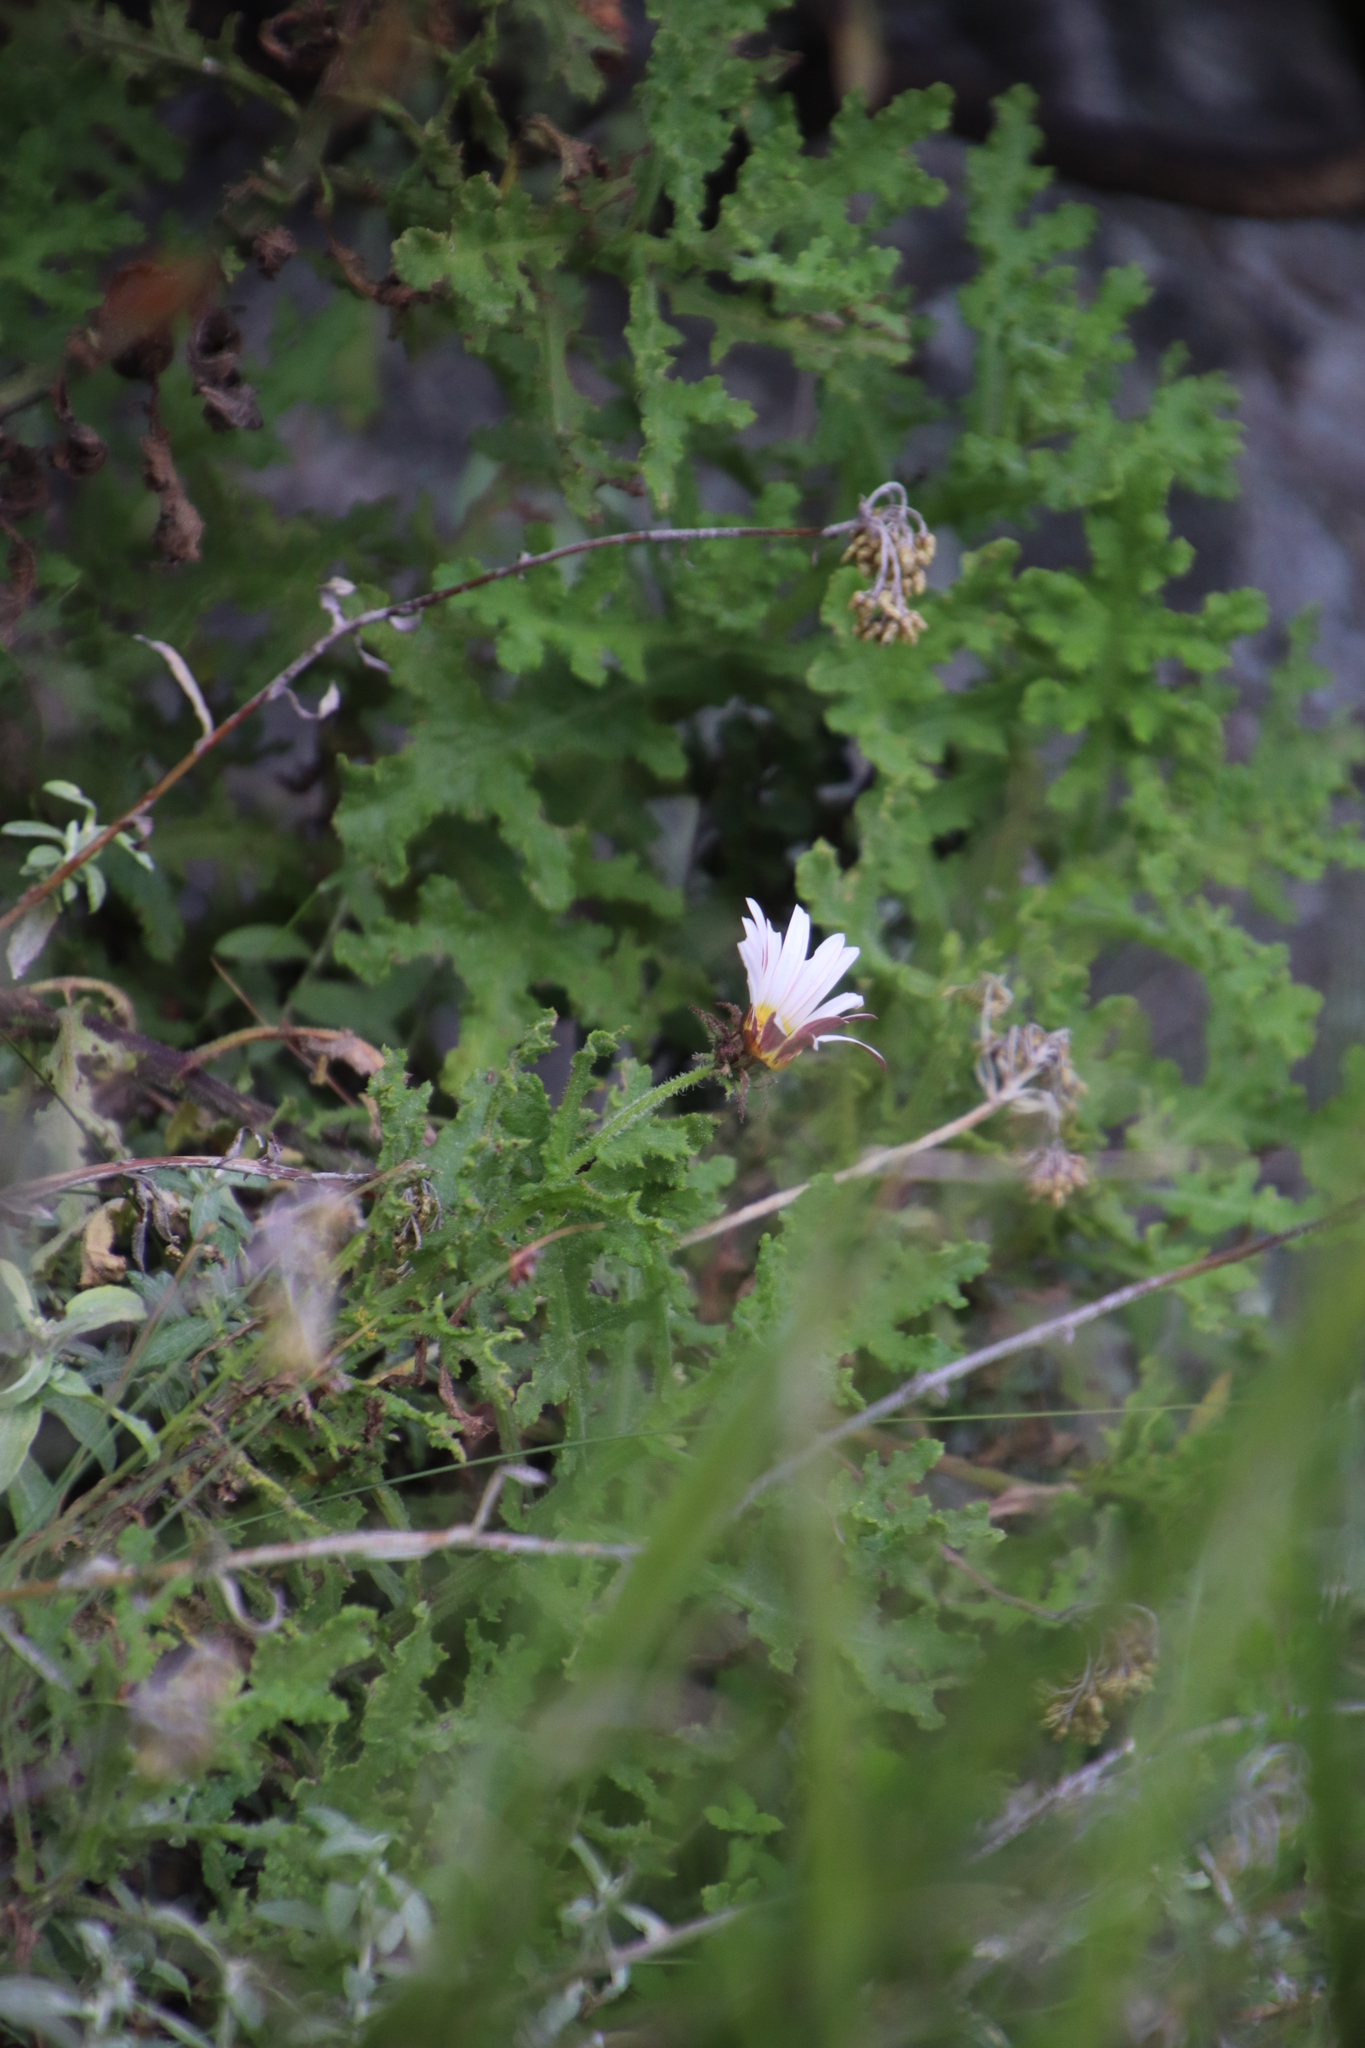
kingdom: Plantae
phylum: Tracheophyta
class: Magnoliopsida
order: Asterales
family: Asteraceae
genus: Arctotis
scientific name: Arctotis aspera
